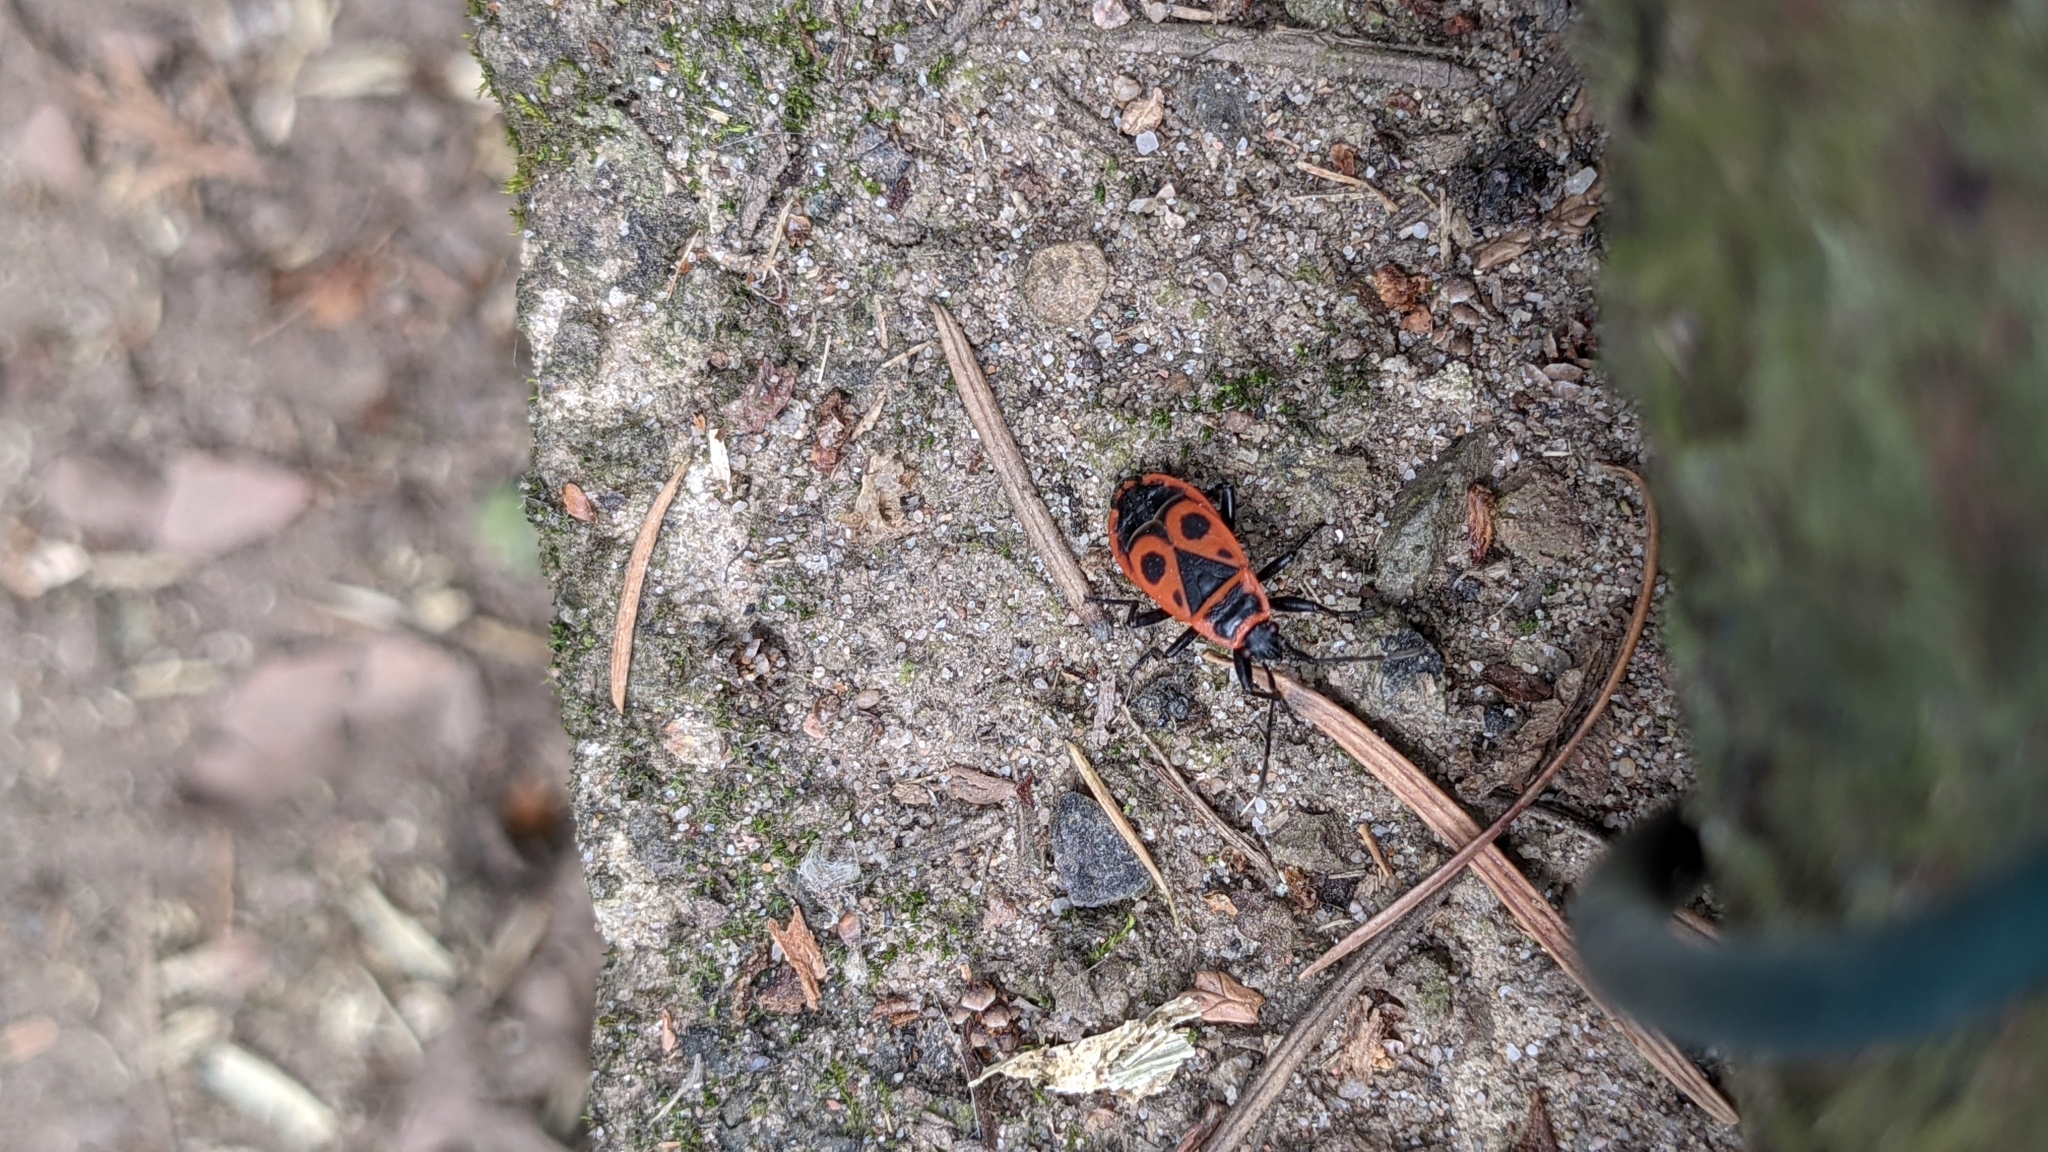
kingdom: Animalia
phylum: Arthropoda
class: Insecta
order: Hemiptera
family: Pyrrhocoridae
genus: Pyrrhocoris
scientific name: Pyrrhocoris apterus
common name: Firebug
